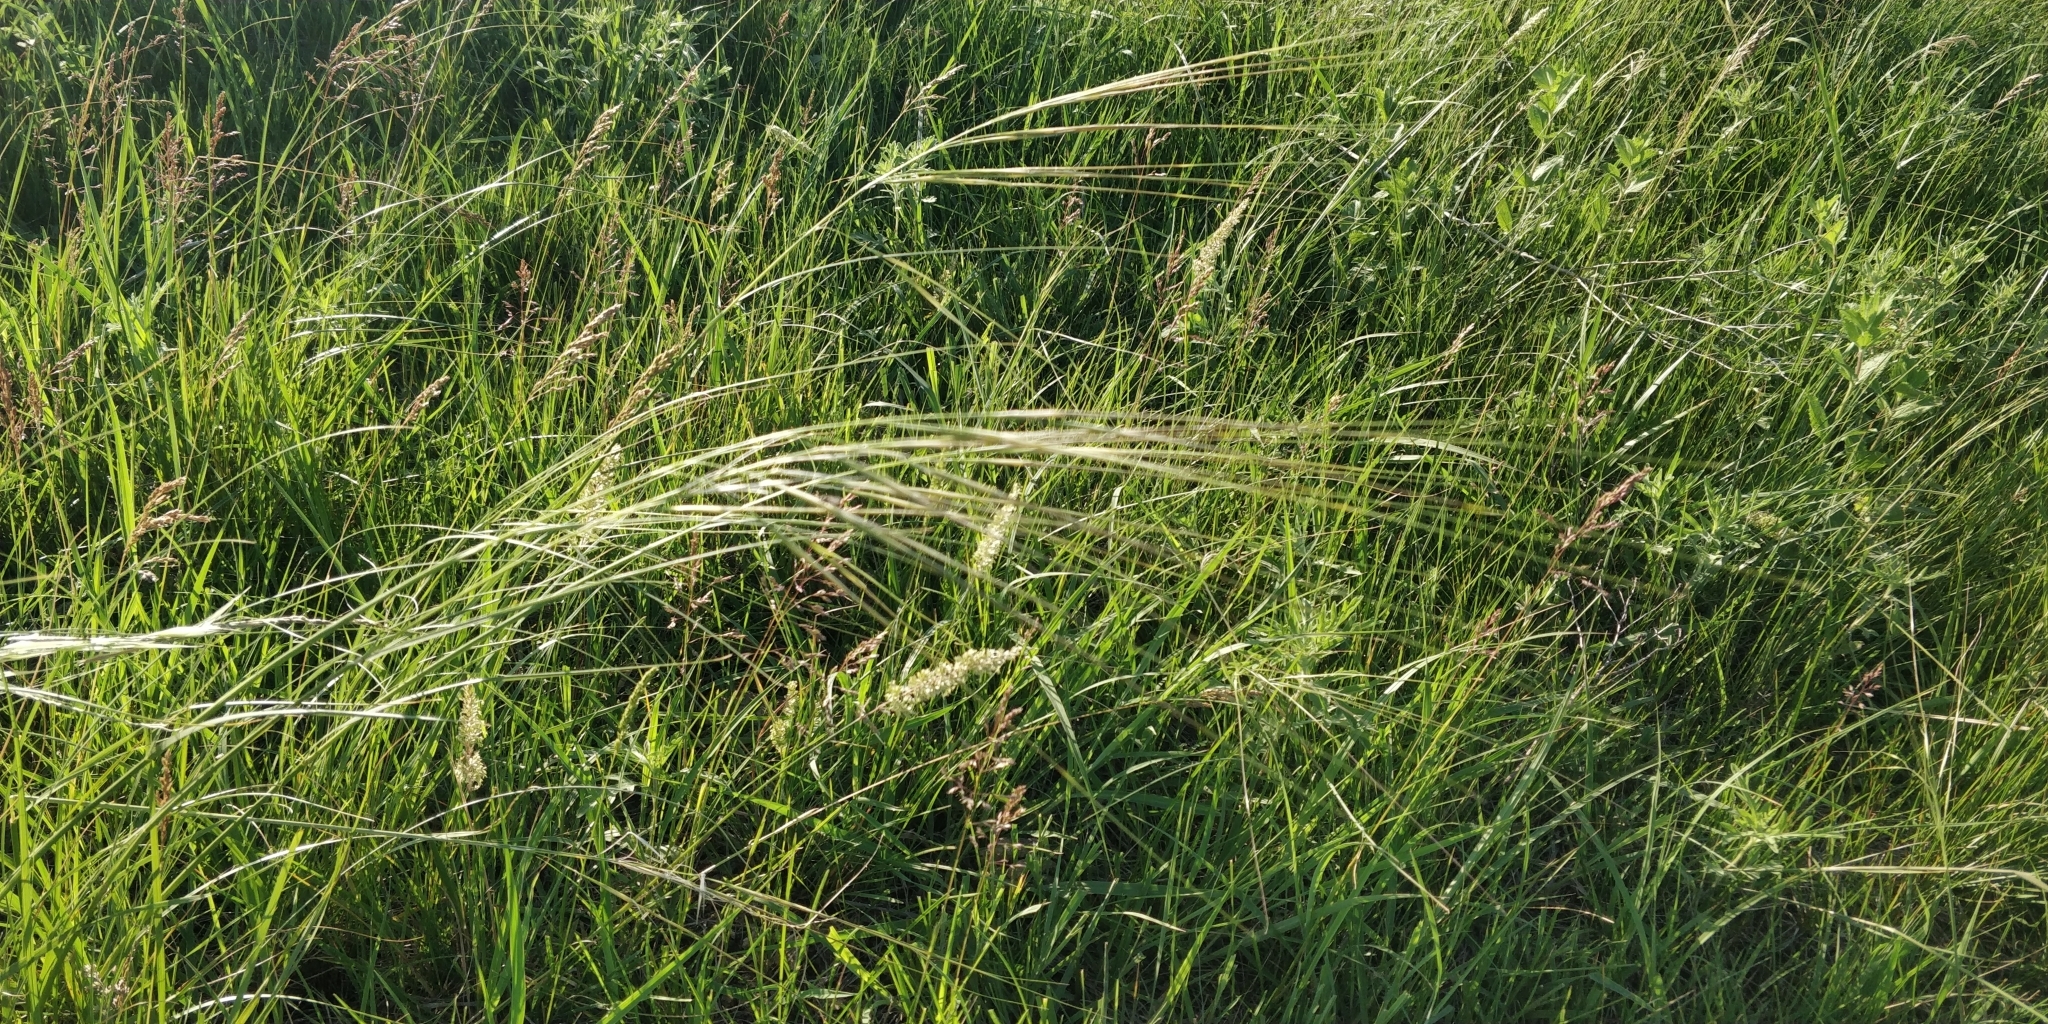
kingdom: Plantae
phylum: Tracheophyta
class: Liliopsida
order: Poales
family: Poaceae
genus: Hesperostipa
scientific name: Hesperostipa spartea
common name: Porcupine grass
